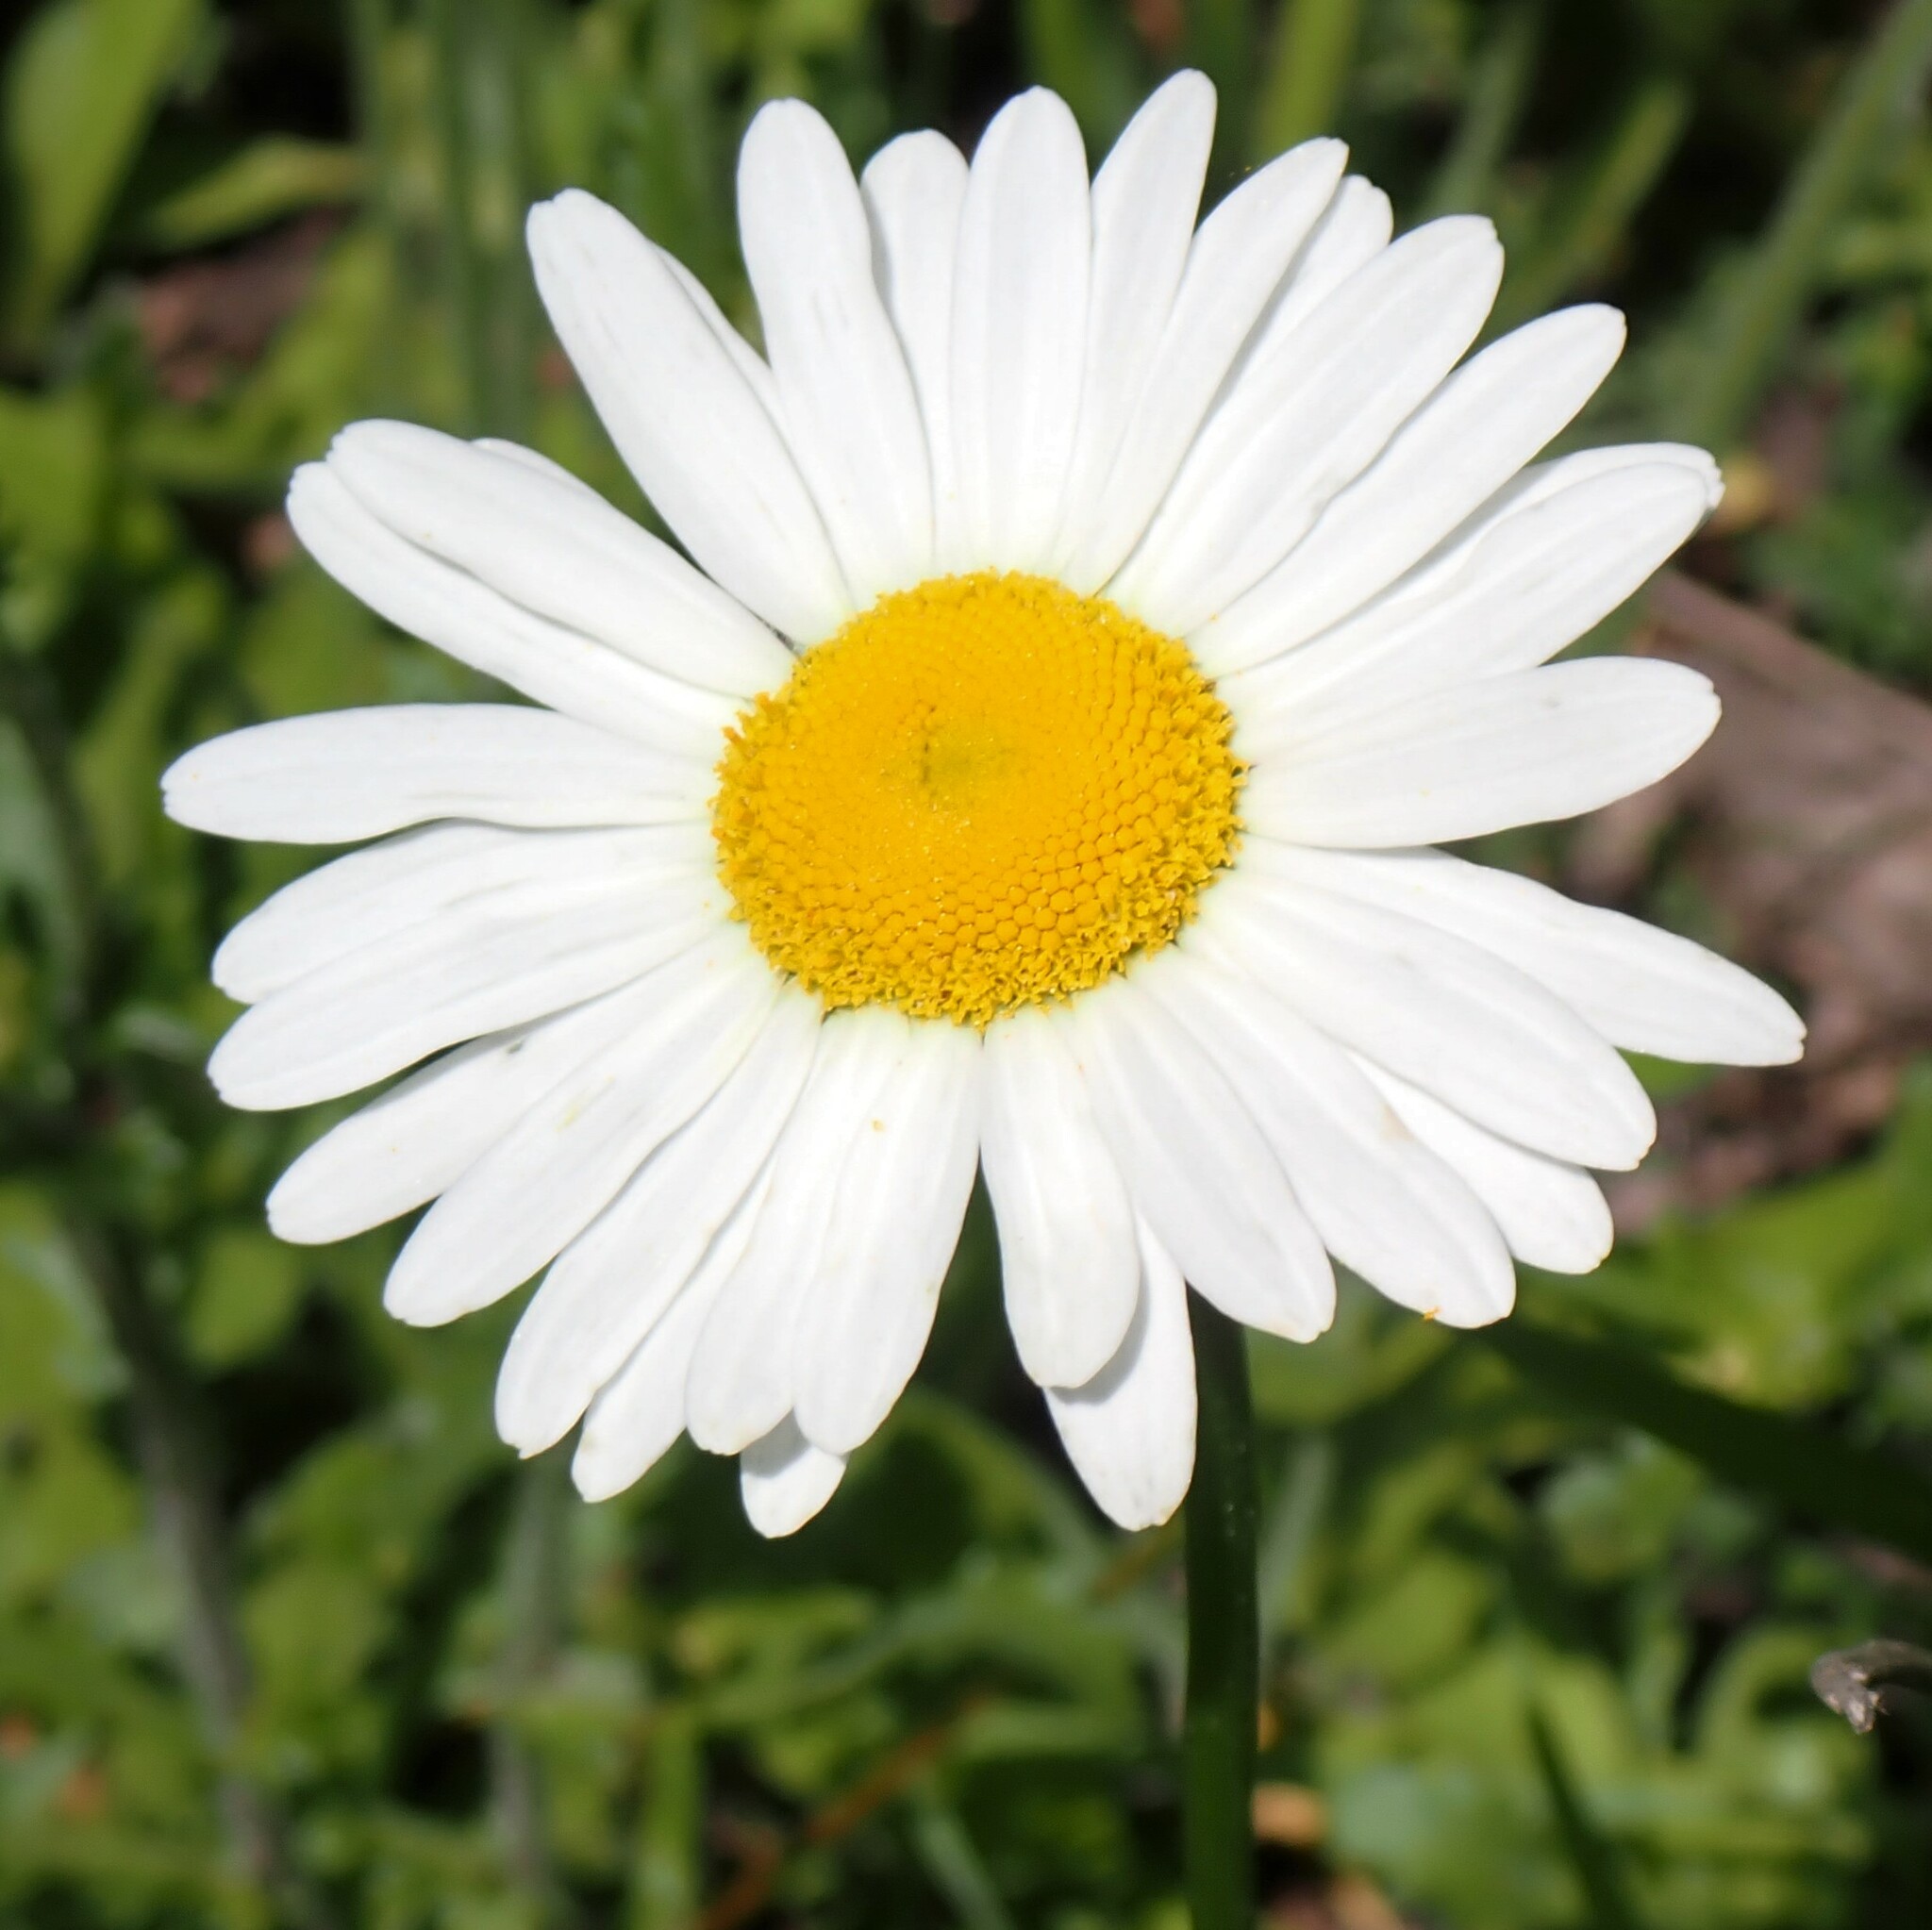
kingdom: Plantae
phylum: Tracheophyta
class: Magnoliopsida
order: Asterales
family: Asteraceae
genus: Leucanthemum
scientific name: Leucanthemum vulgare
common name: Oxeye daisy
